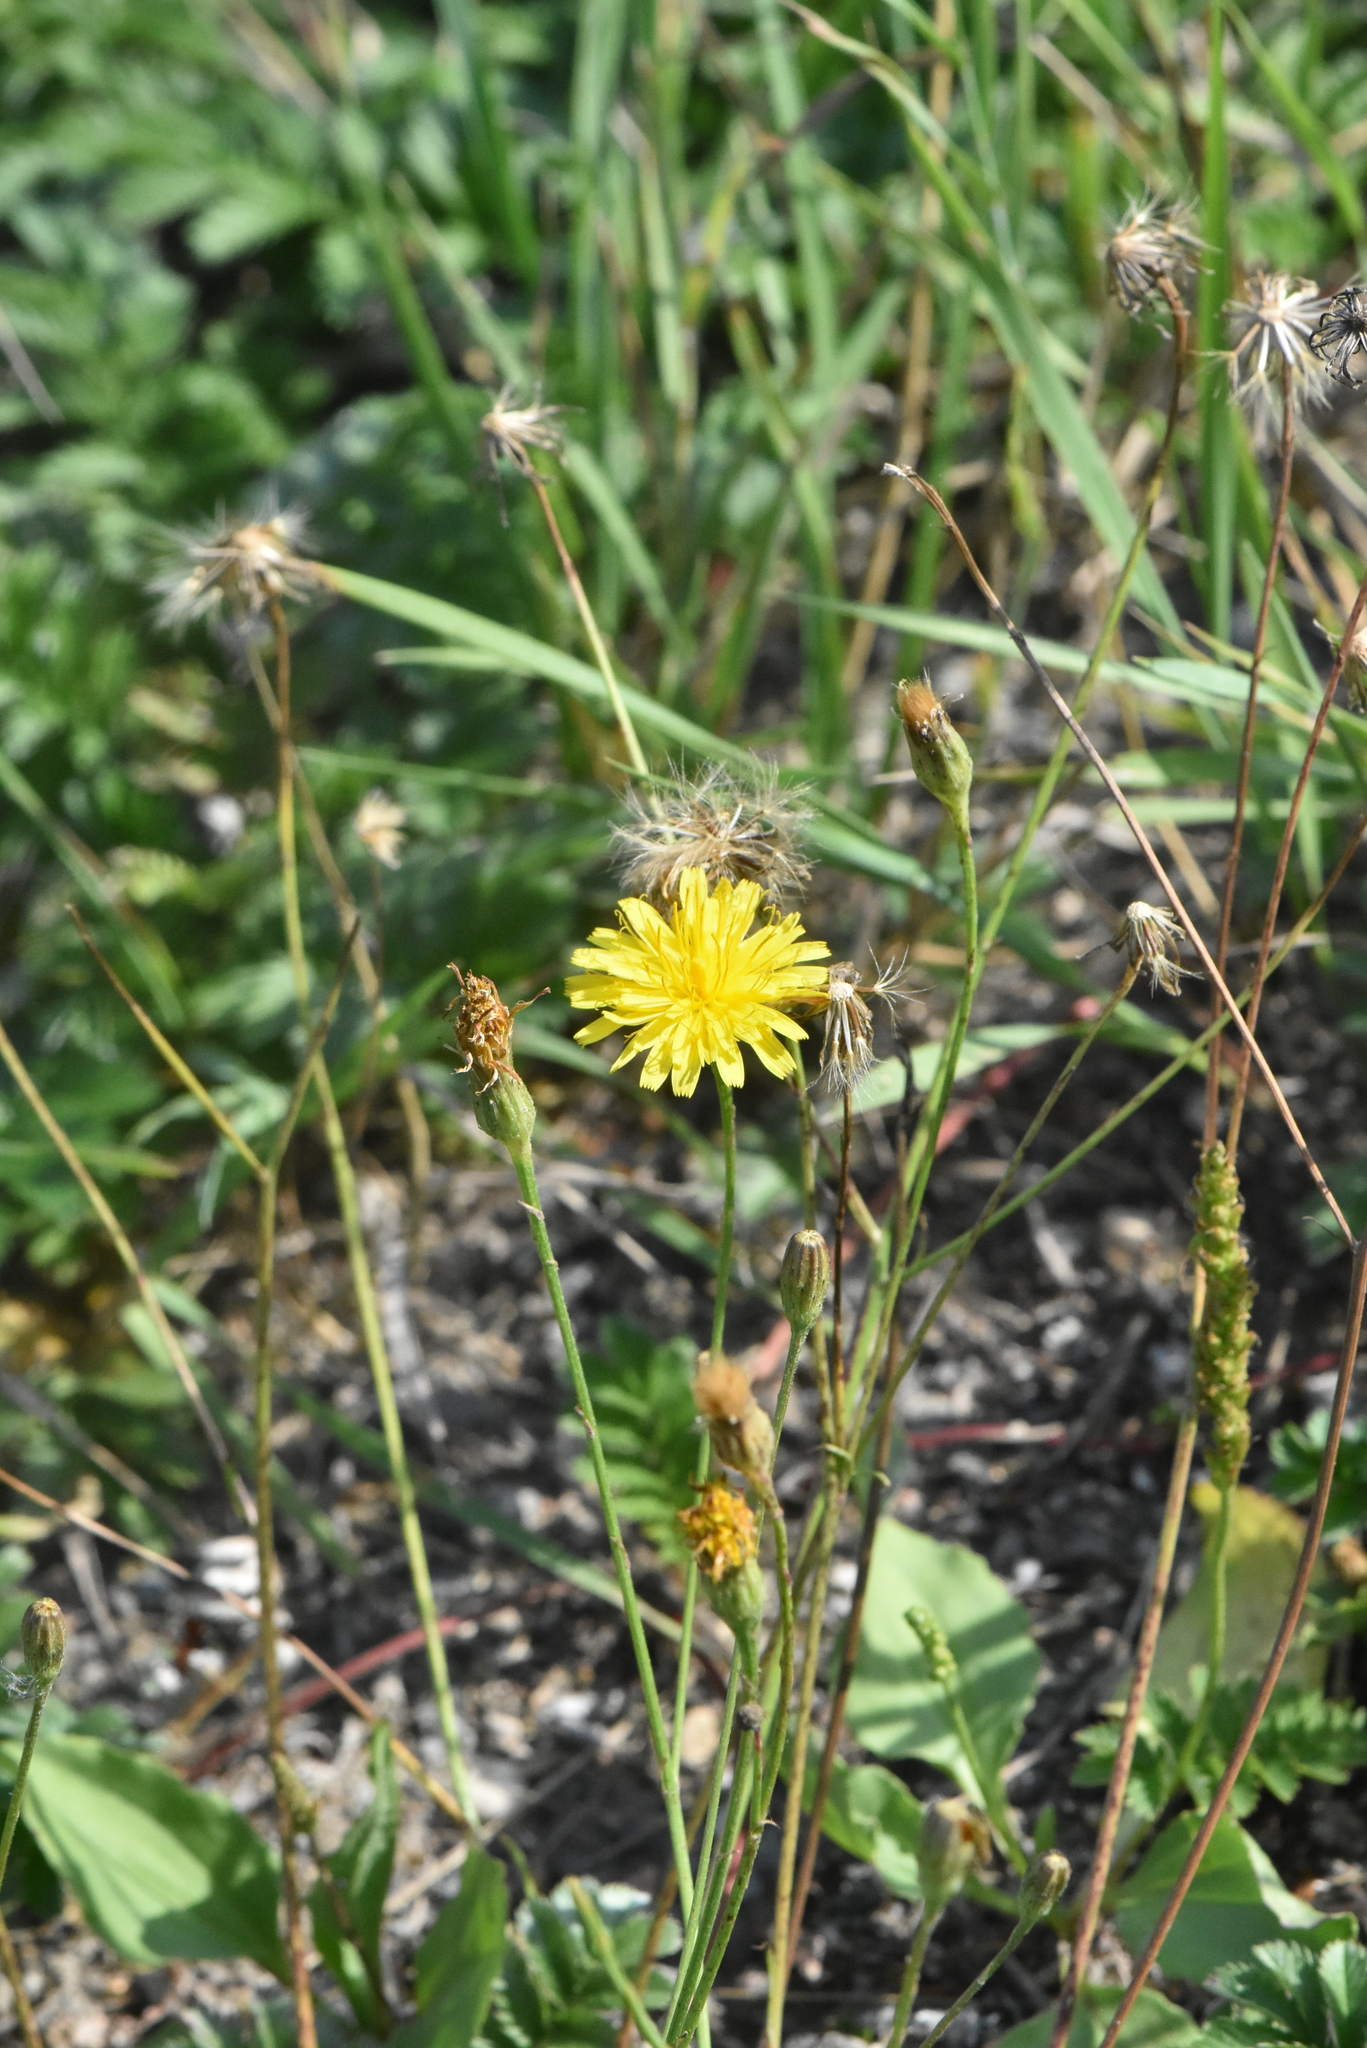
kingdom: Plantae
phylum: Tracheophyta
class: Magnoliopsida
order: Asterales
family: Asteraceae
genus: Scorzoneroides
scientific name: Scorzoneroides autumnalis
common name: Autumn hawkbit
